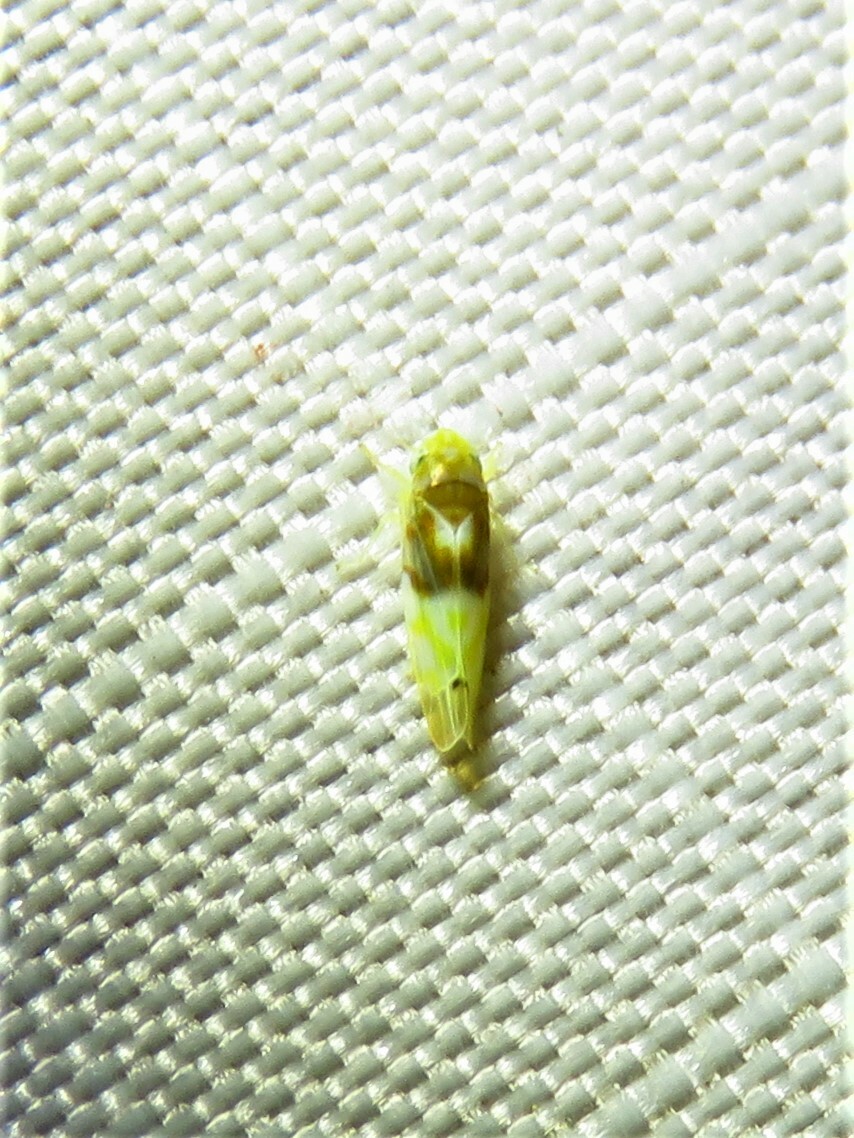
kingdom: Animalia
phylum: Arthropoda
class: Insecta
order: Hemiptera
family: Cicadellidae
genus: Eratoneura
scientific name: Eratoneura affinis
